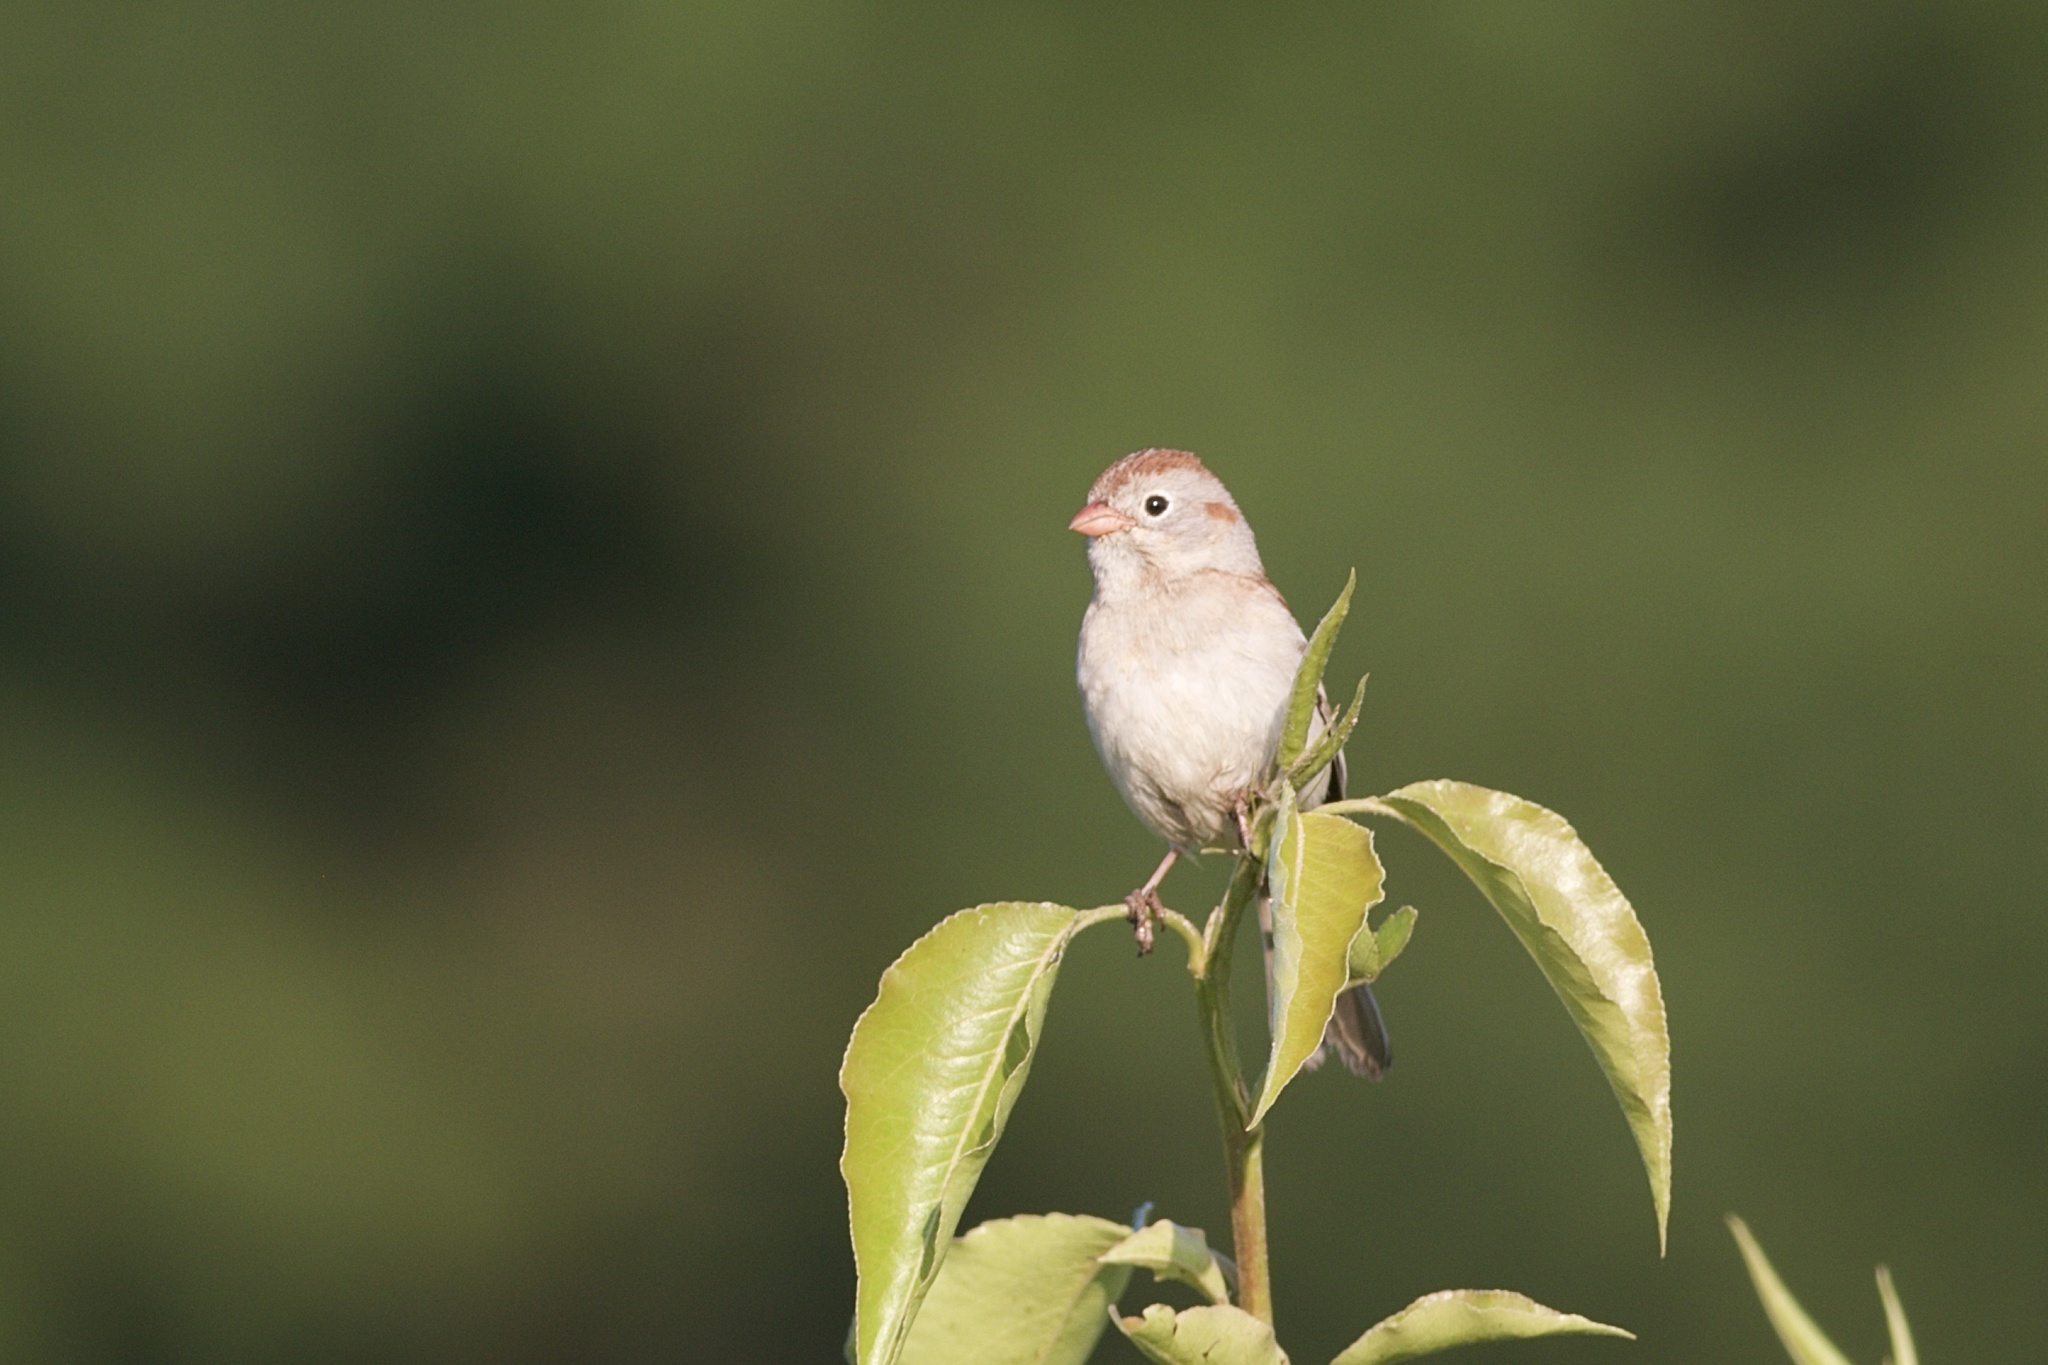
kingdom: Animalia
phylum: Chordata
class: Aves
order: Passeriformes
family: Passerellidae
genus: Spizella
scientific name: Spizella pusilla
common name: Field sparrow
